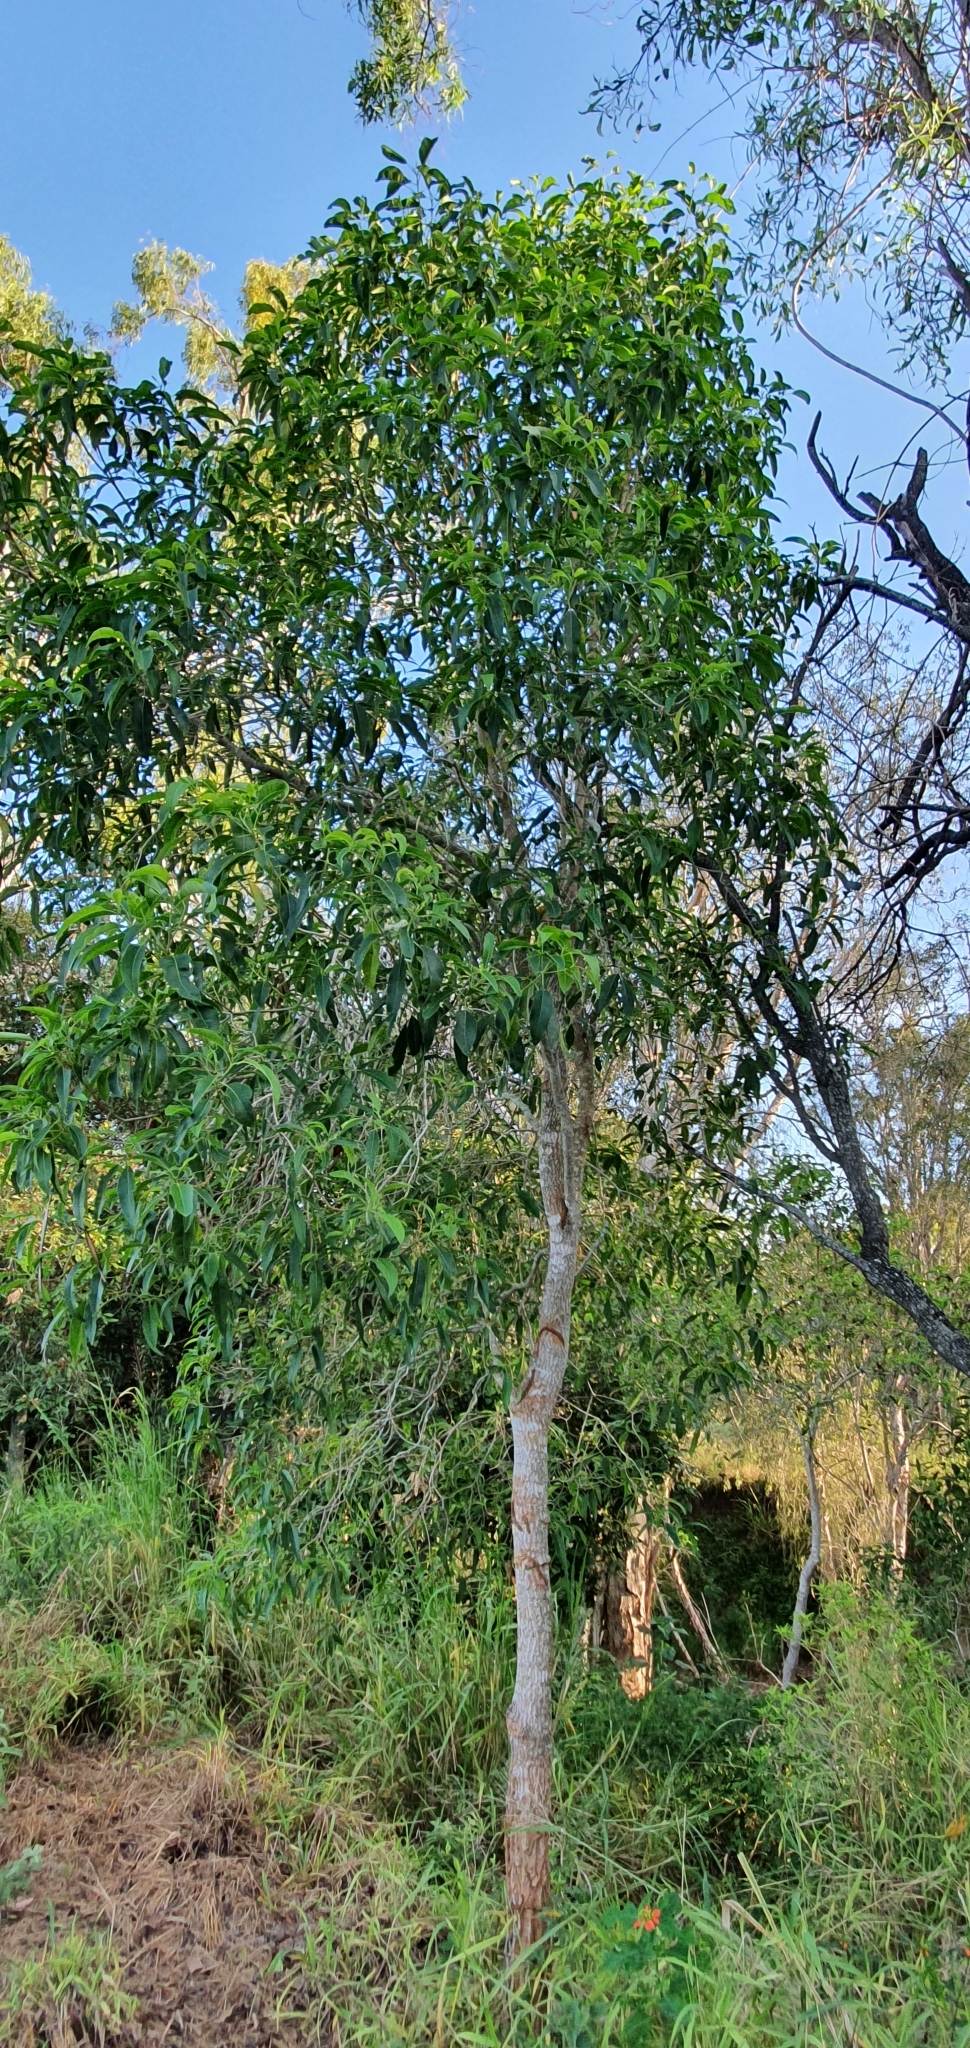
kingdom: Plantae
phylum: Tracheophyta
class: Magnoliopsida
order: Gentianales
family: Apocynaceae
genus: Alstonia
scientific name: Alstonia mollis
